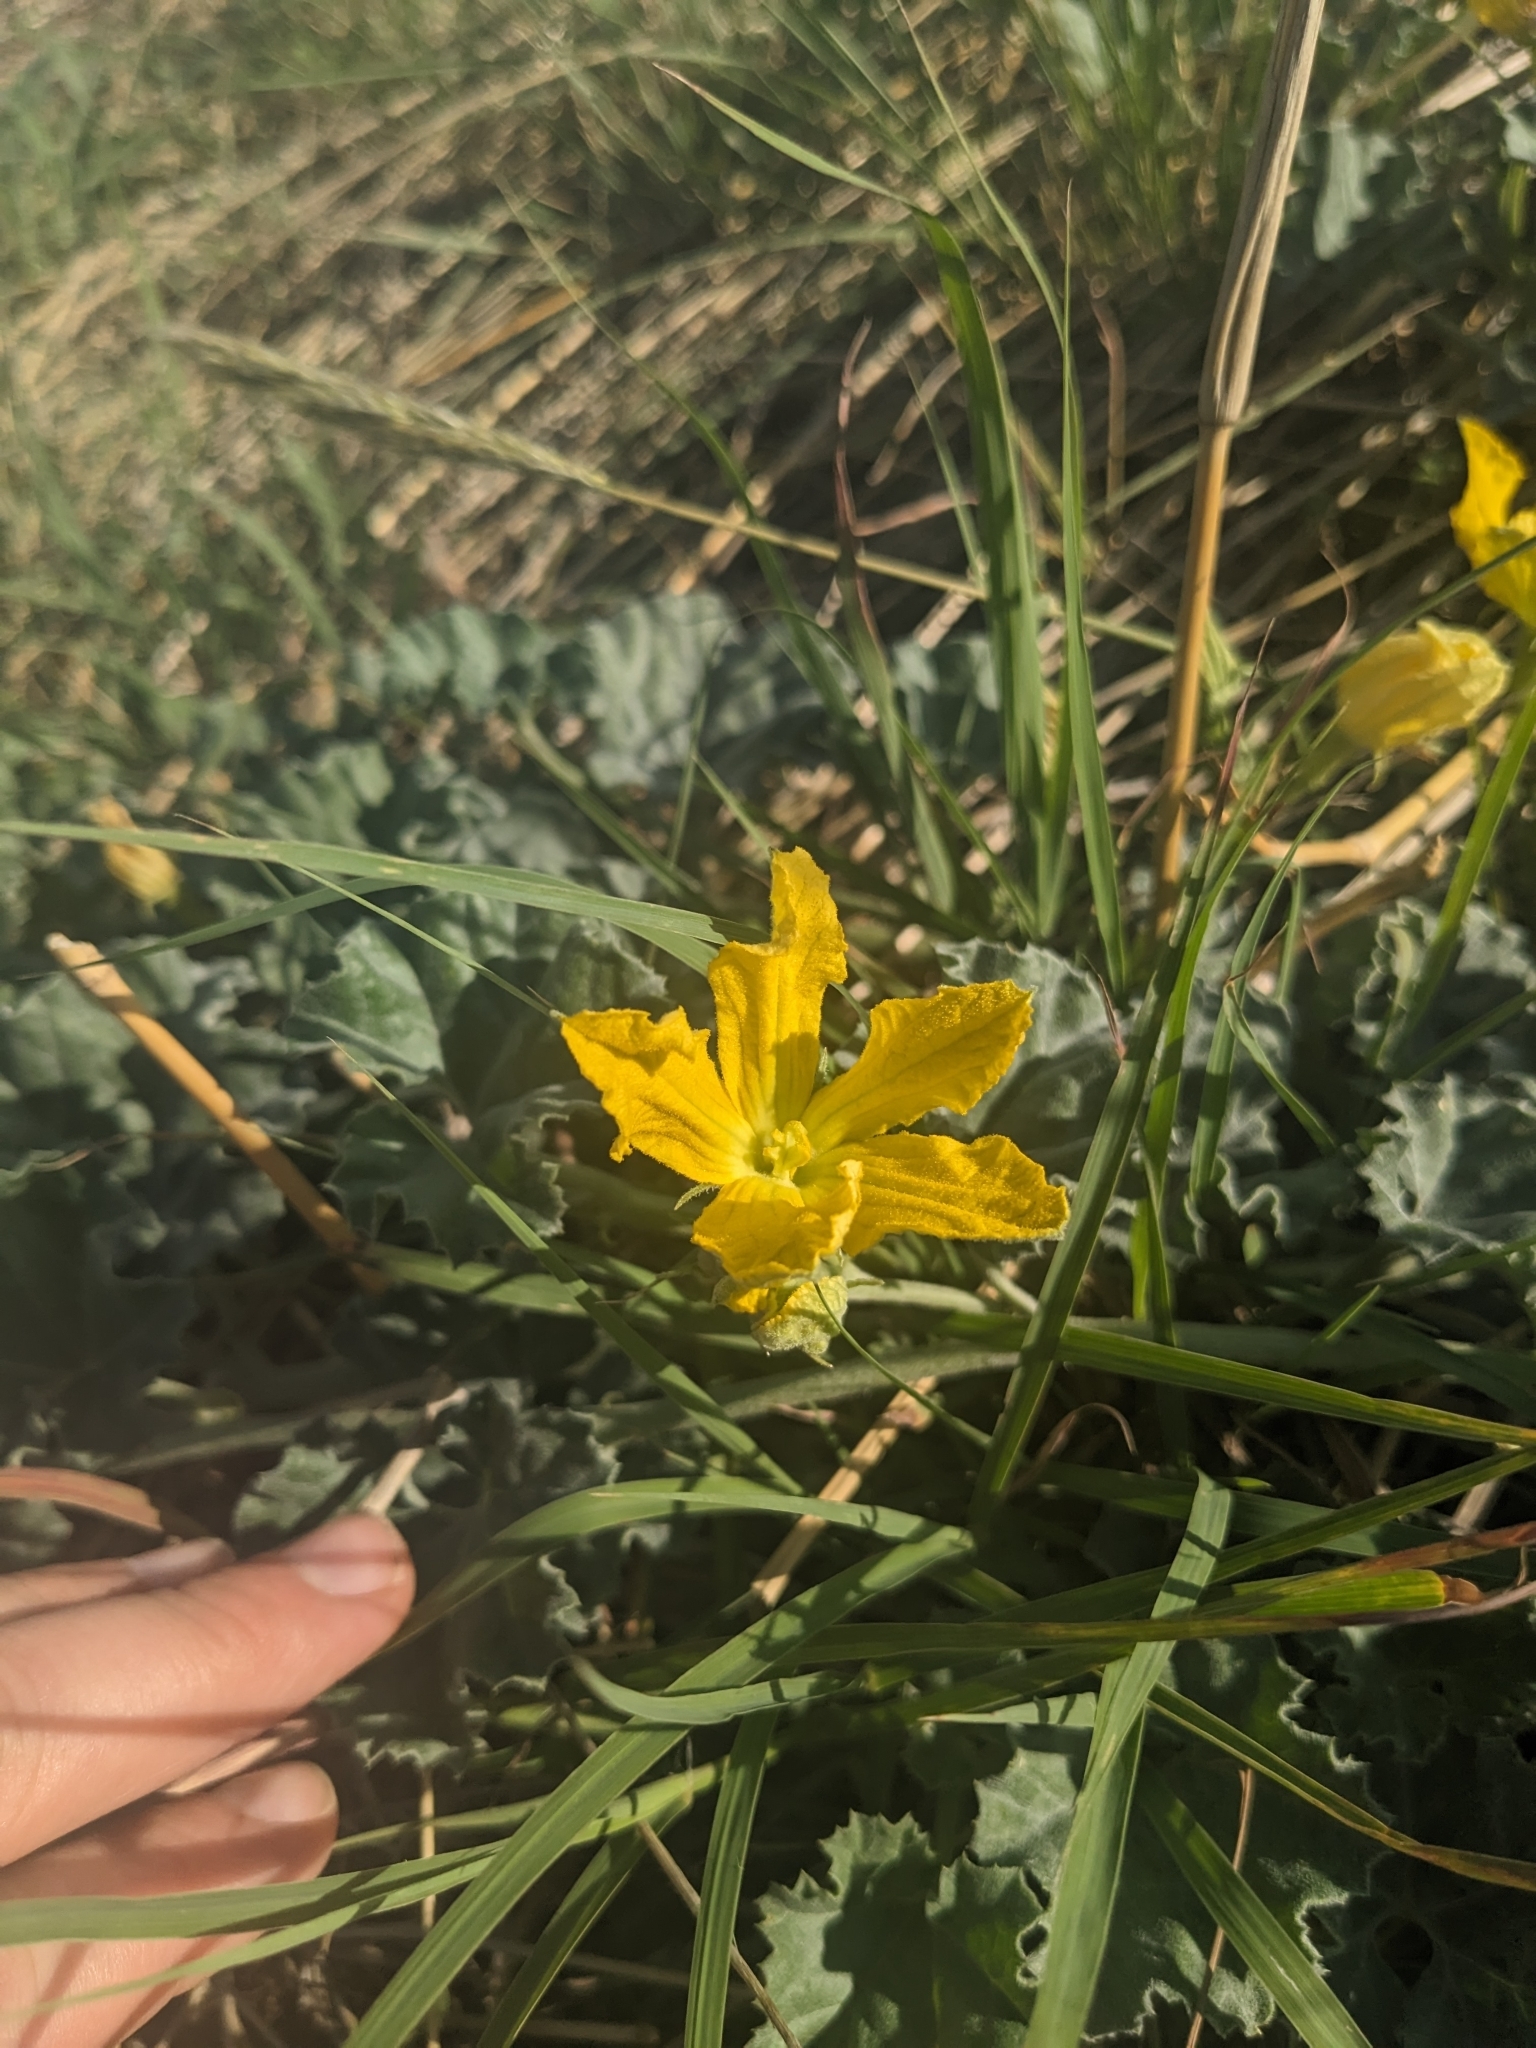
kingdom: Plantae
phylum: Tracheophyta
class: Magnoliopsida
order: Cucurbitales
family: Cucurbitaceae
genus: Apodanthera
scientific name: Apodanthera undulata
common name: Melon-loco
